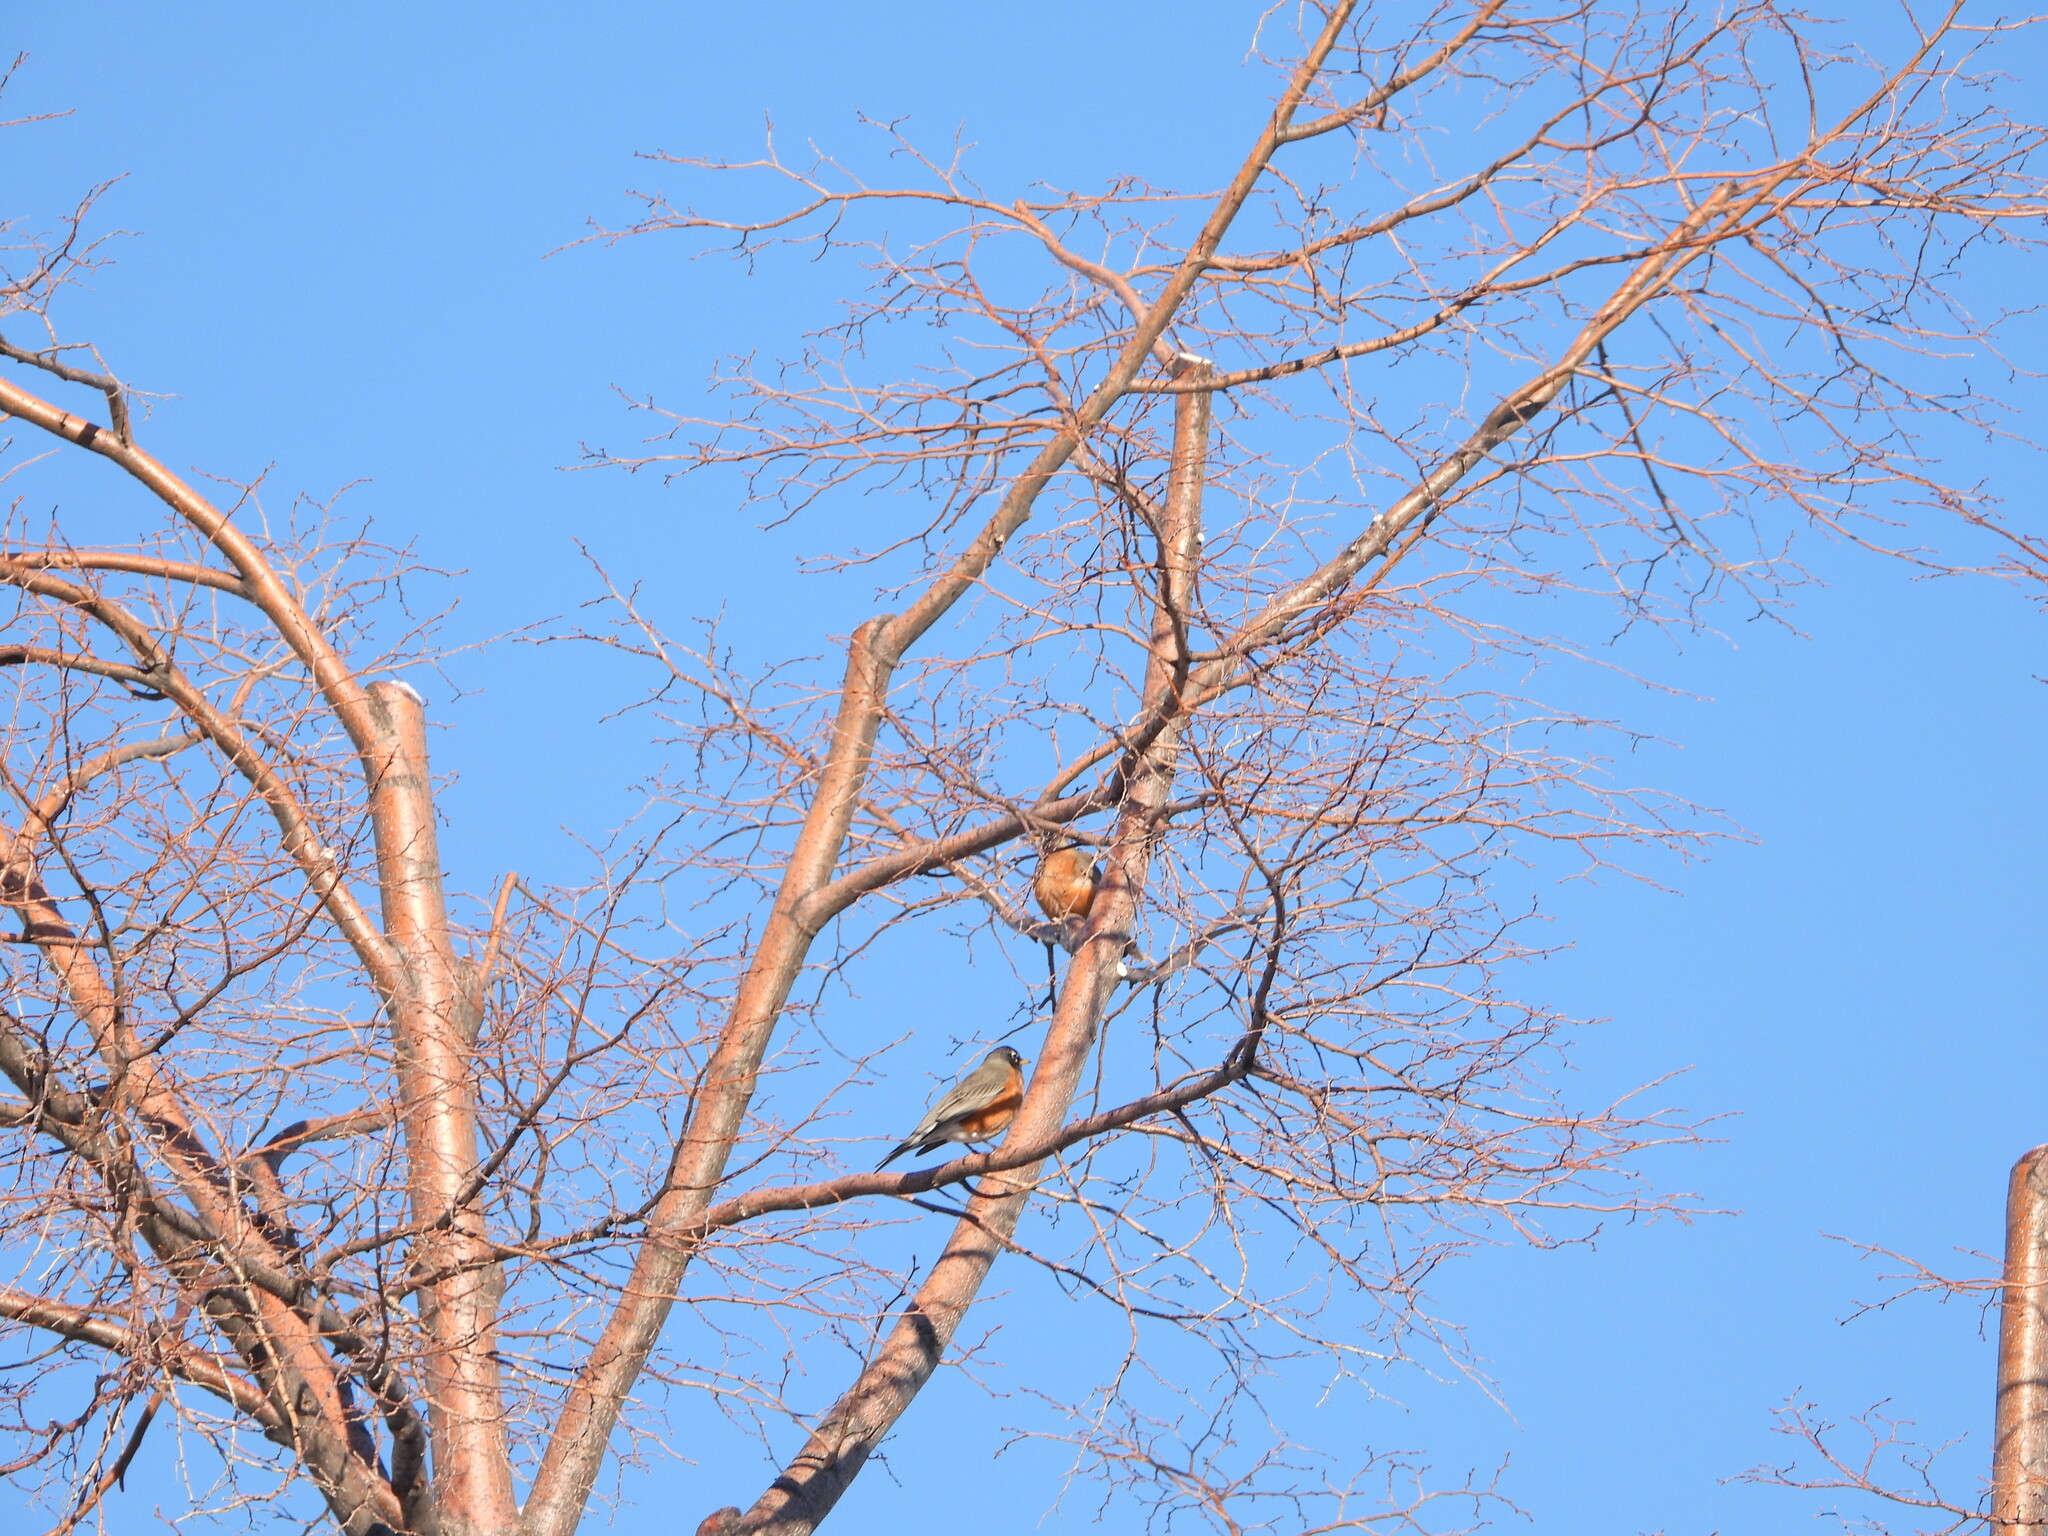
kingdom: Animalia
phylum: Chordata
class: Aves
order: Passeriformes
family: Turdidae
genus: Turdus
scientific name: Turdus migratorius
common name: American robin
